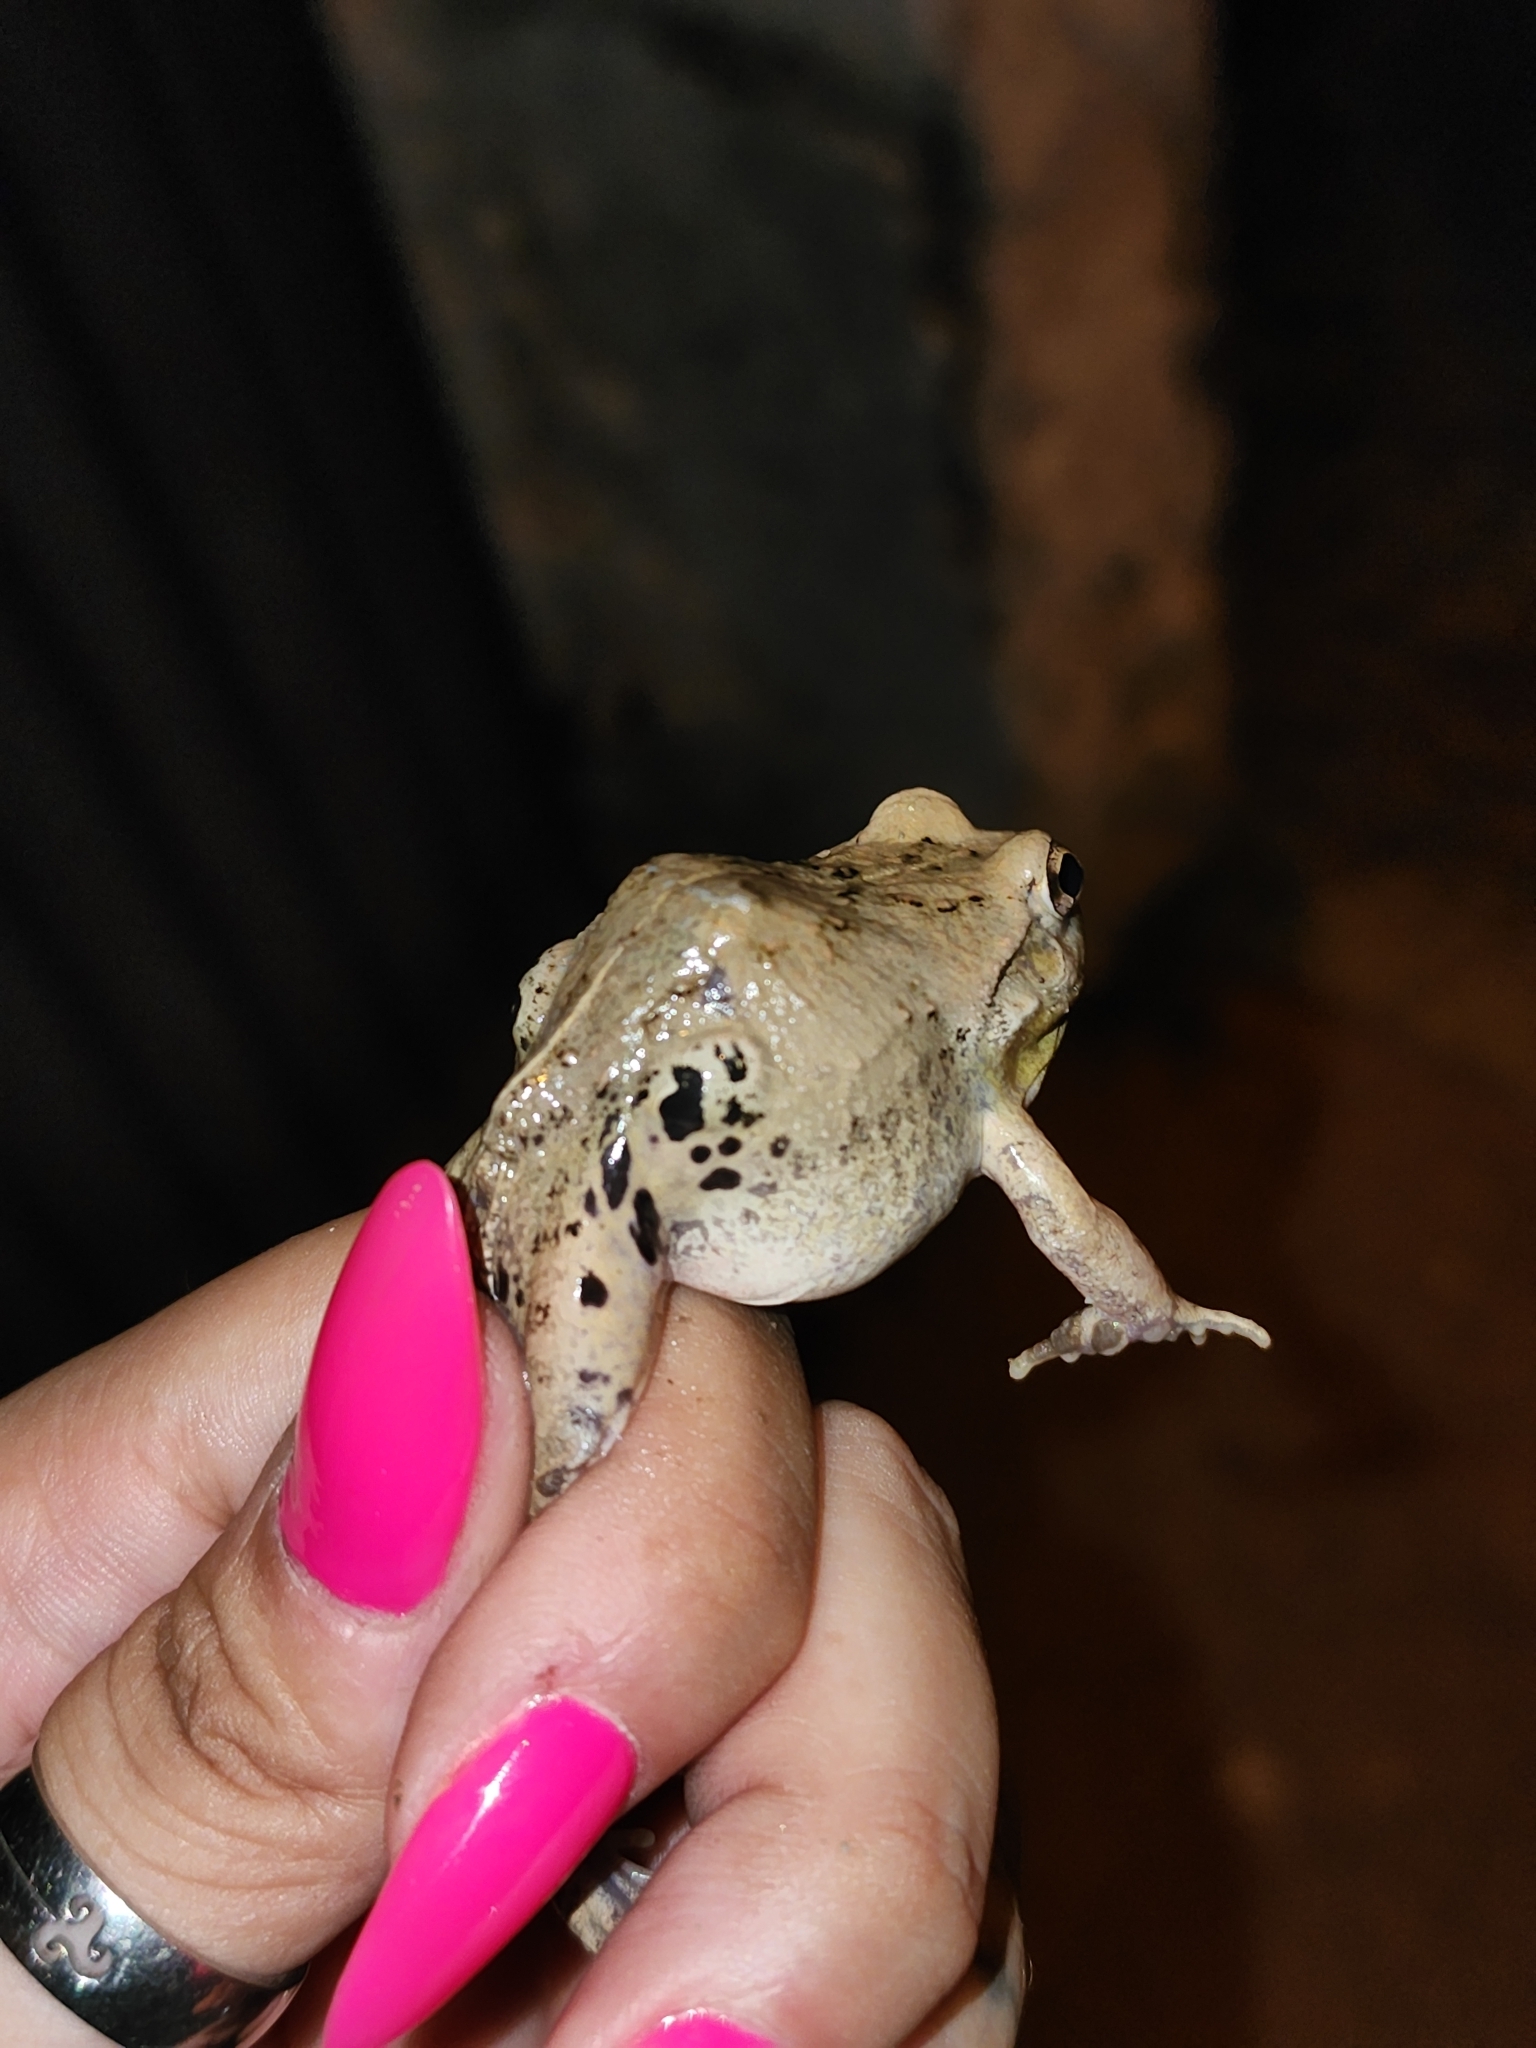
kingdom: Animalia
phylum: Chordata
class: Amphibia
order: Anura
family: Leptodactylidae
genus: Pleurodema
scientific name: Pleurodema borellii
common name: Rufous four-eyed frog
